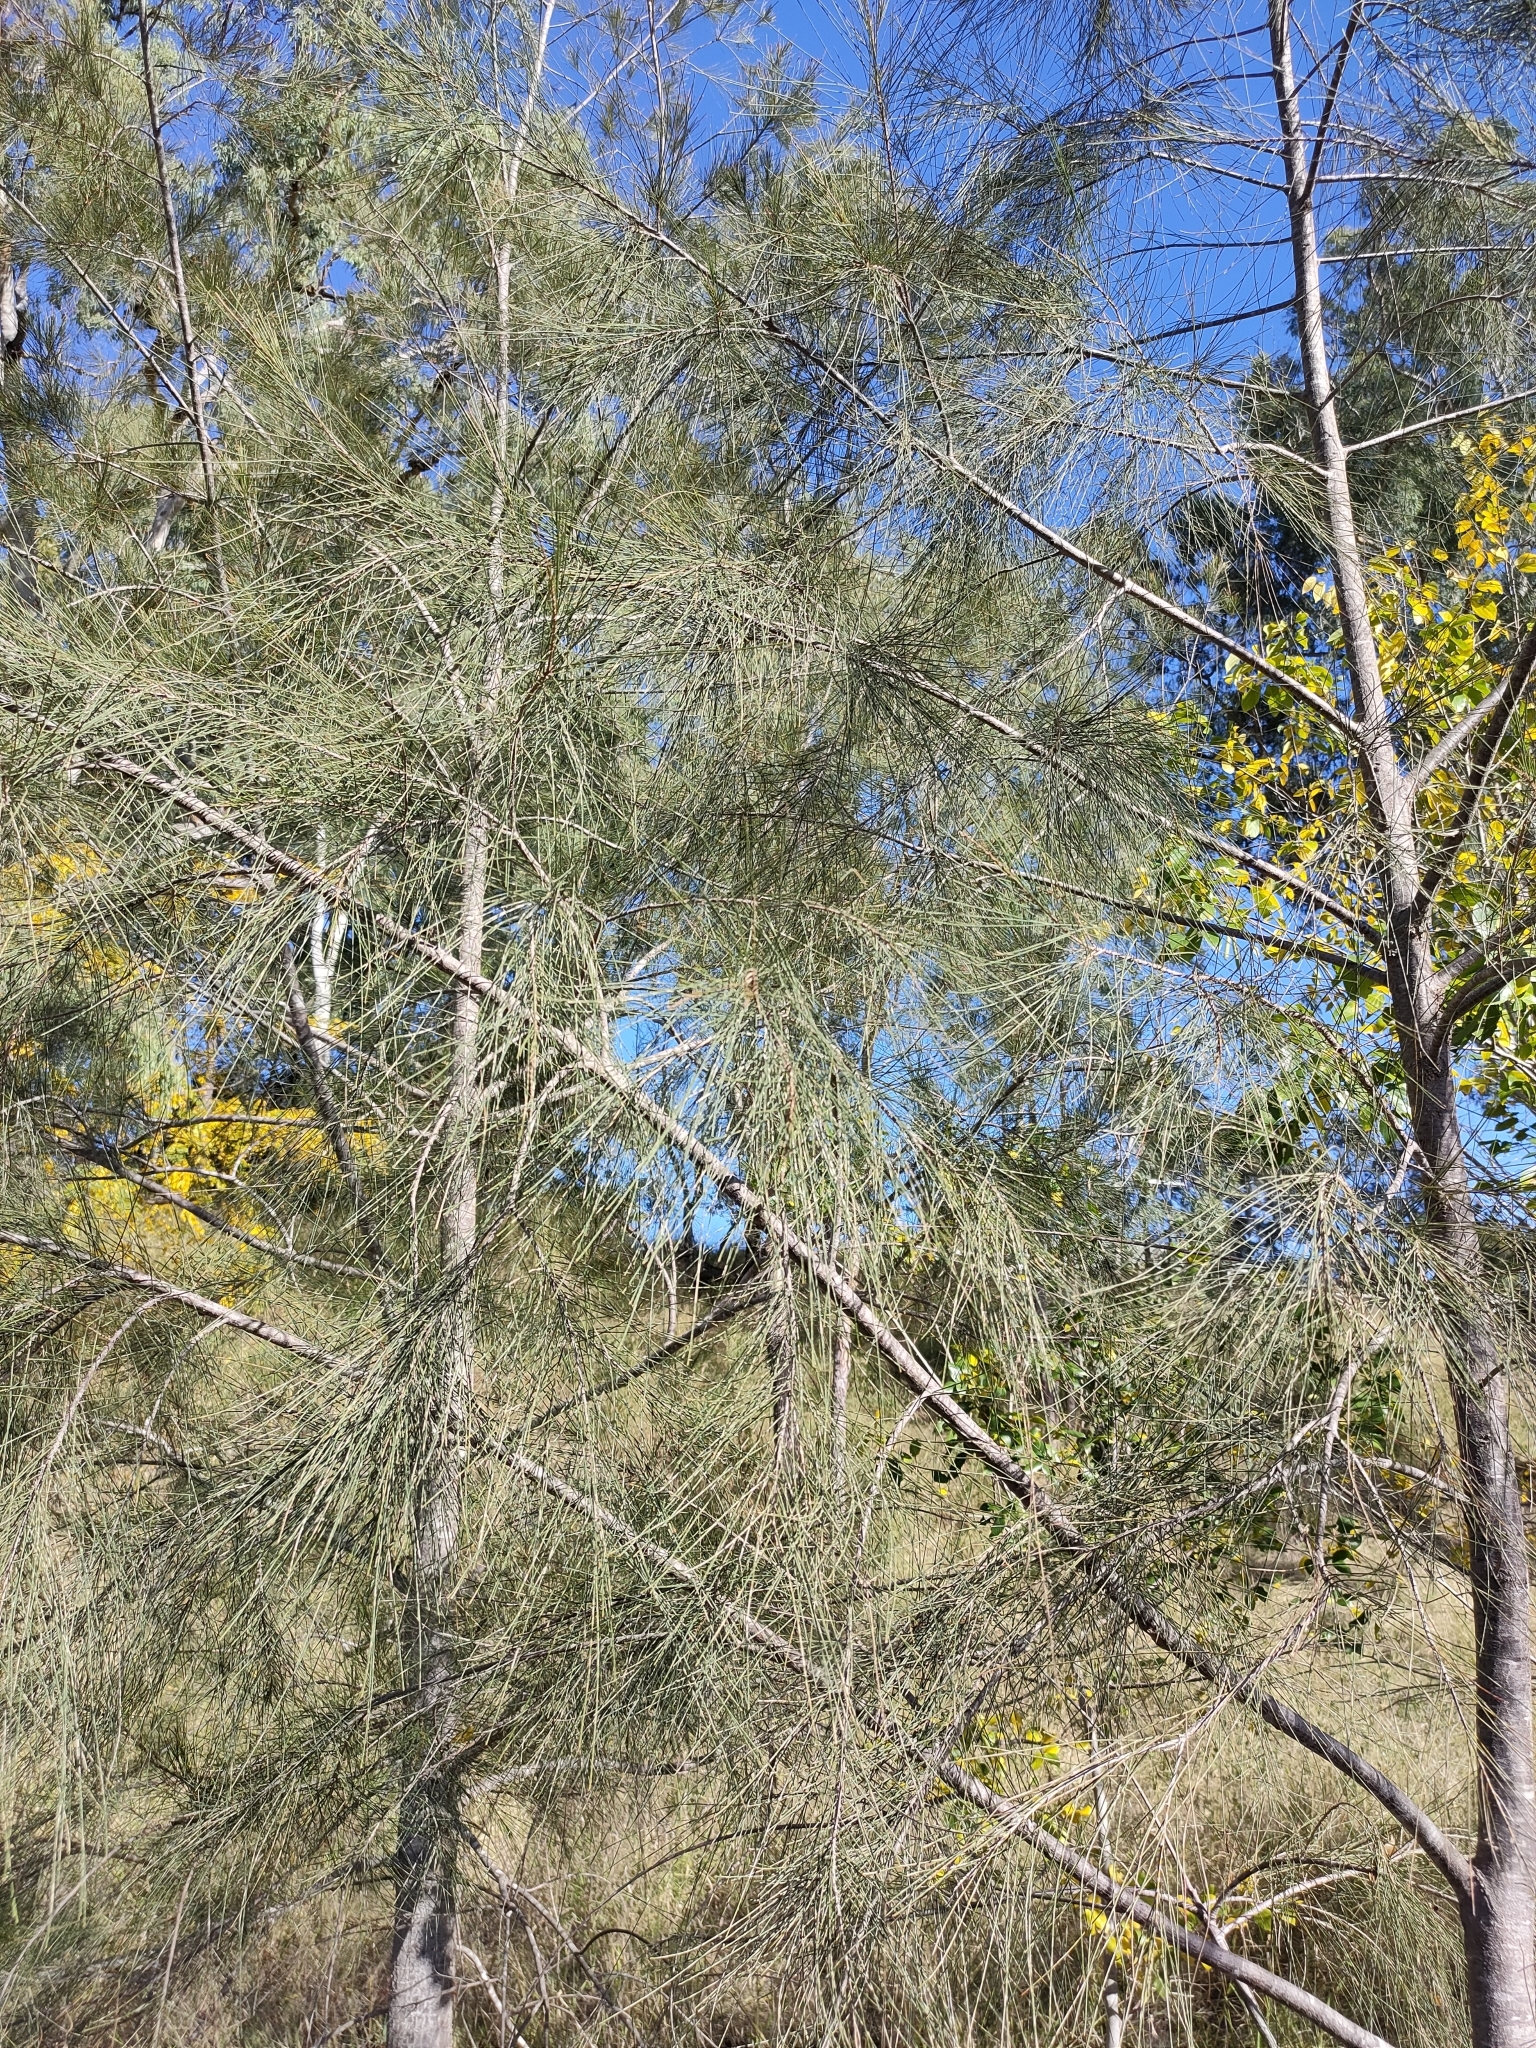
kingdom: Plantae
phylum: Tracheophyta
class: Magnoliopsida
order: Fagales
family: Casuarinaceae
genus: Casuarina
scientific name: Casuarina cunninghamiana
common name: River sheoak
